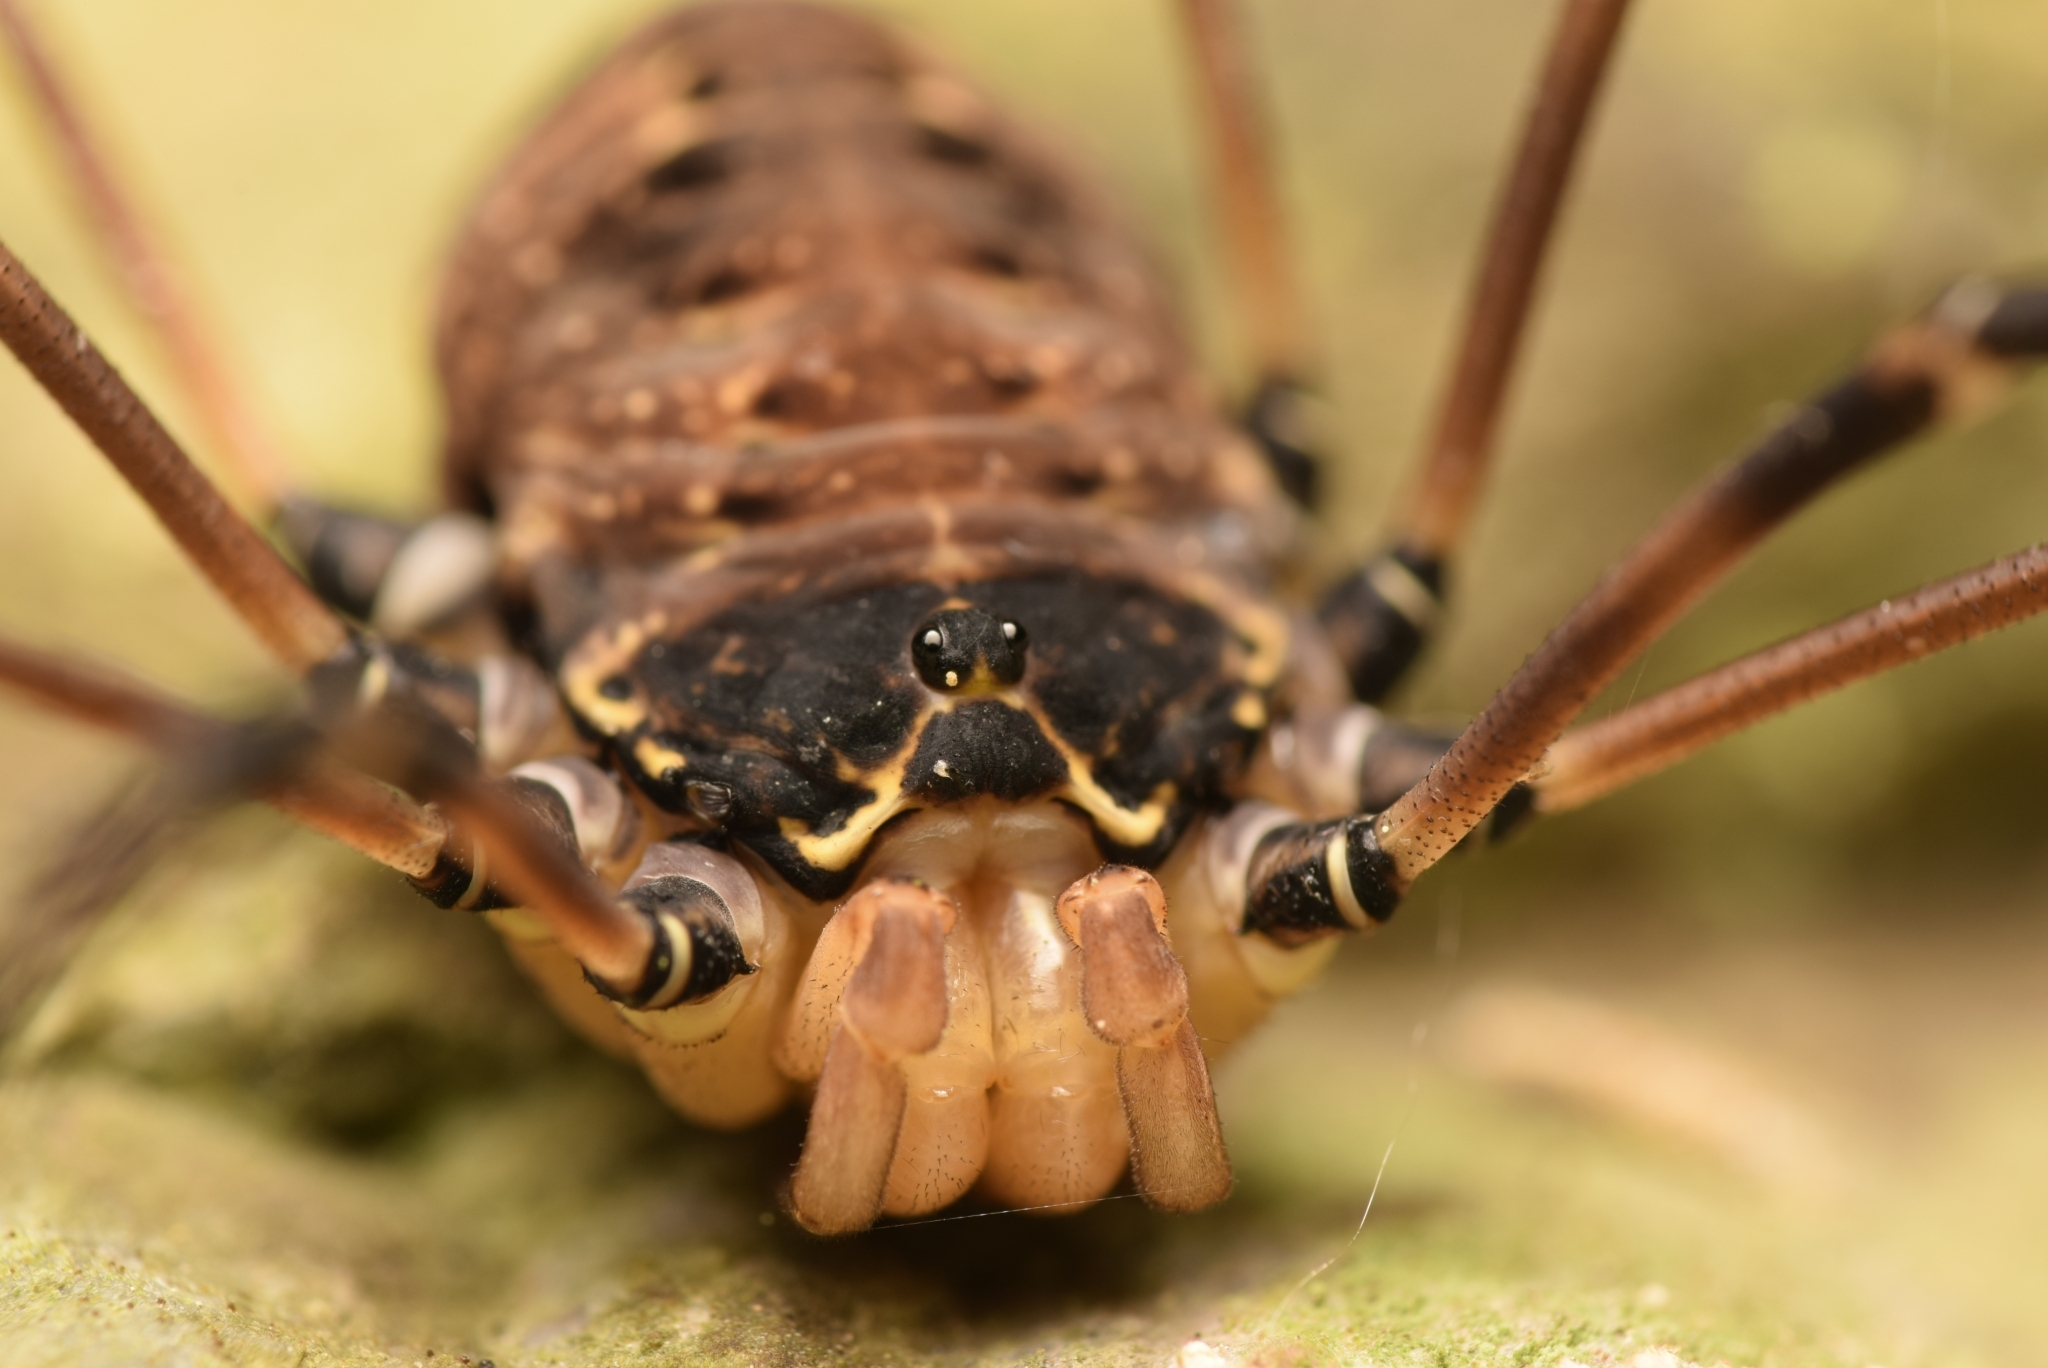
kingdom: Animalia
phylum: Arthropoda
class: Arachnida
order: Opiliones
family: Sclerosomatidae
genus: Gyas
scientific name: Gyas titanus
